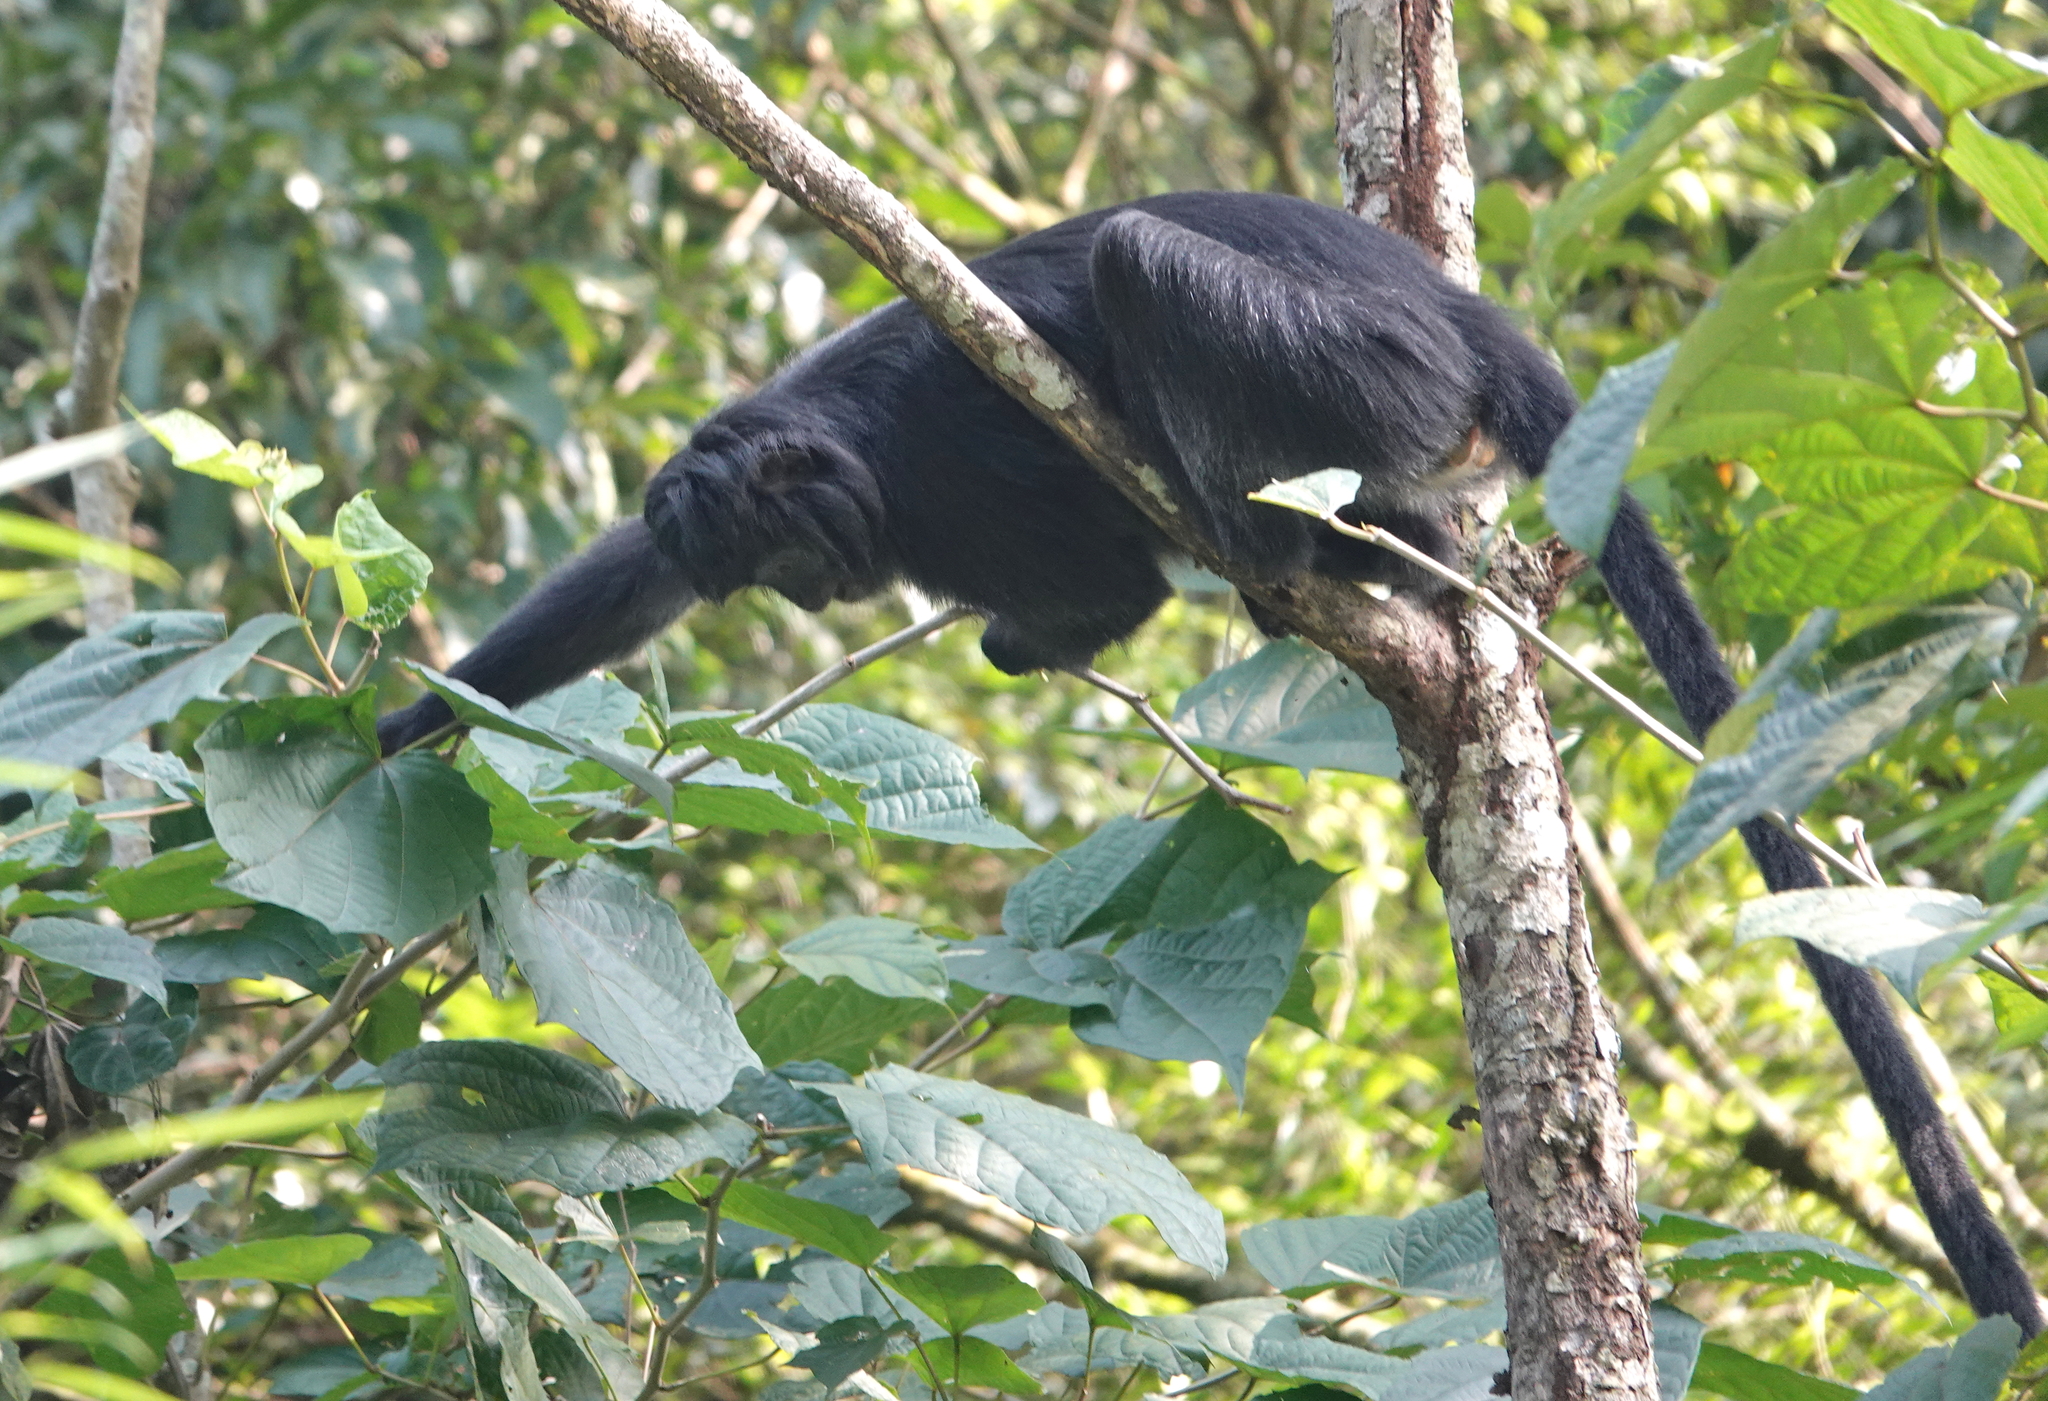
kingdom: Animalia
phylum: Chordata
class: Mammalia
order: Primates
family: Cercopithecidae
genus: Trachypithecus
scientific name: Trachypithecus auratus
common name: Javan lutung
